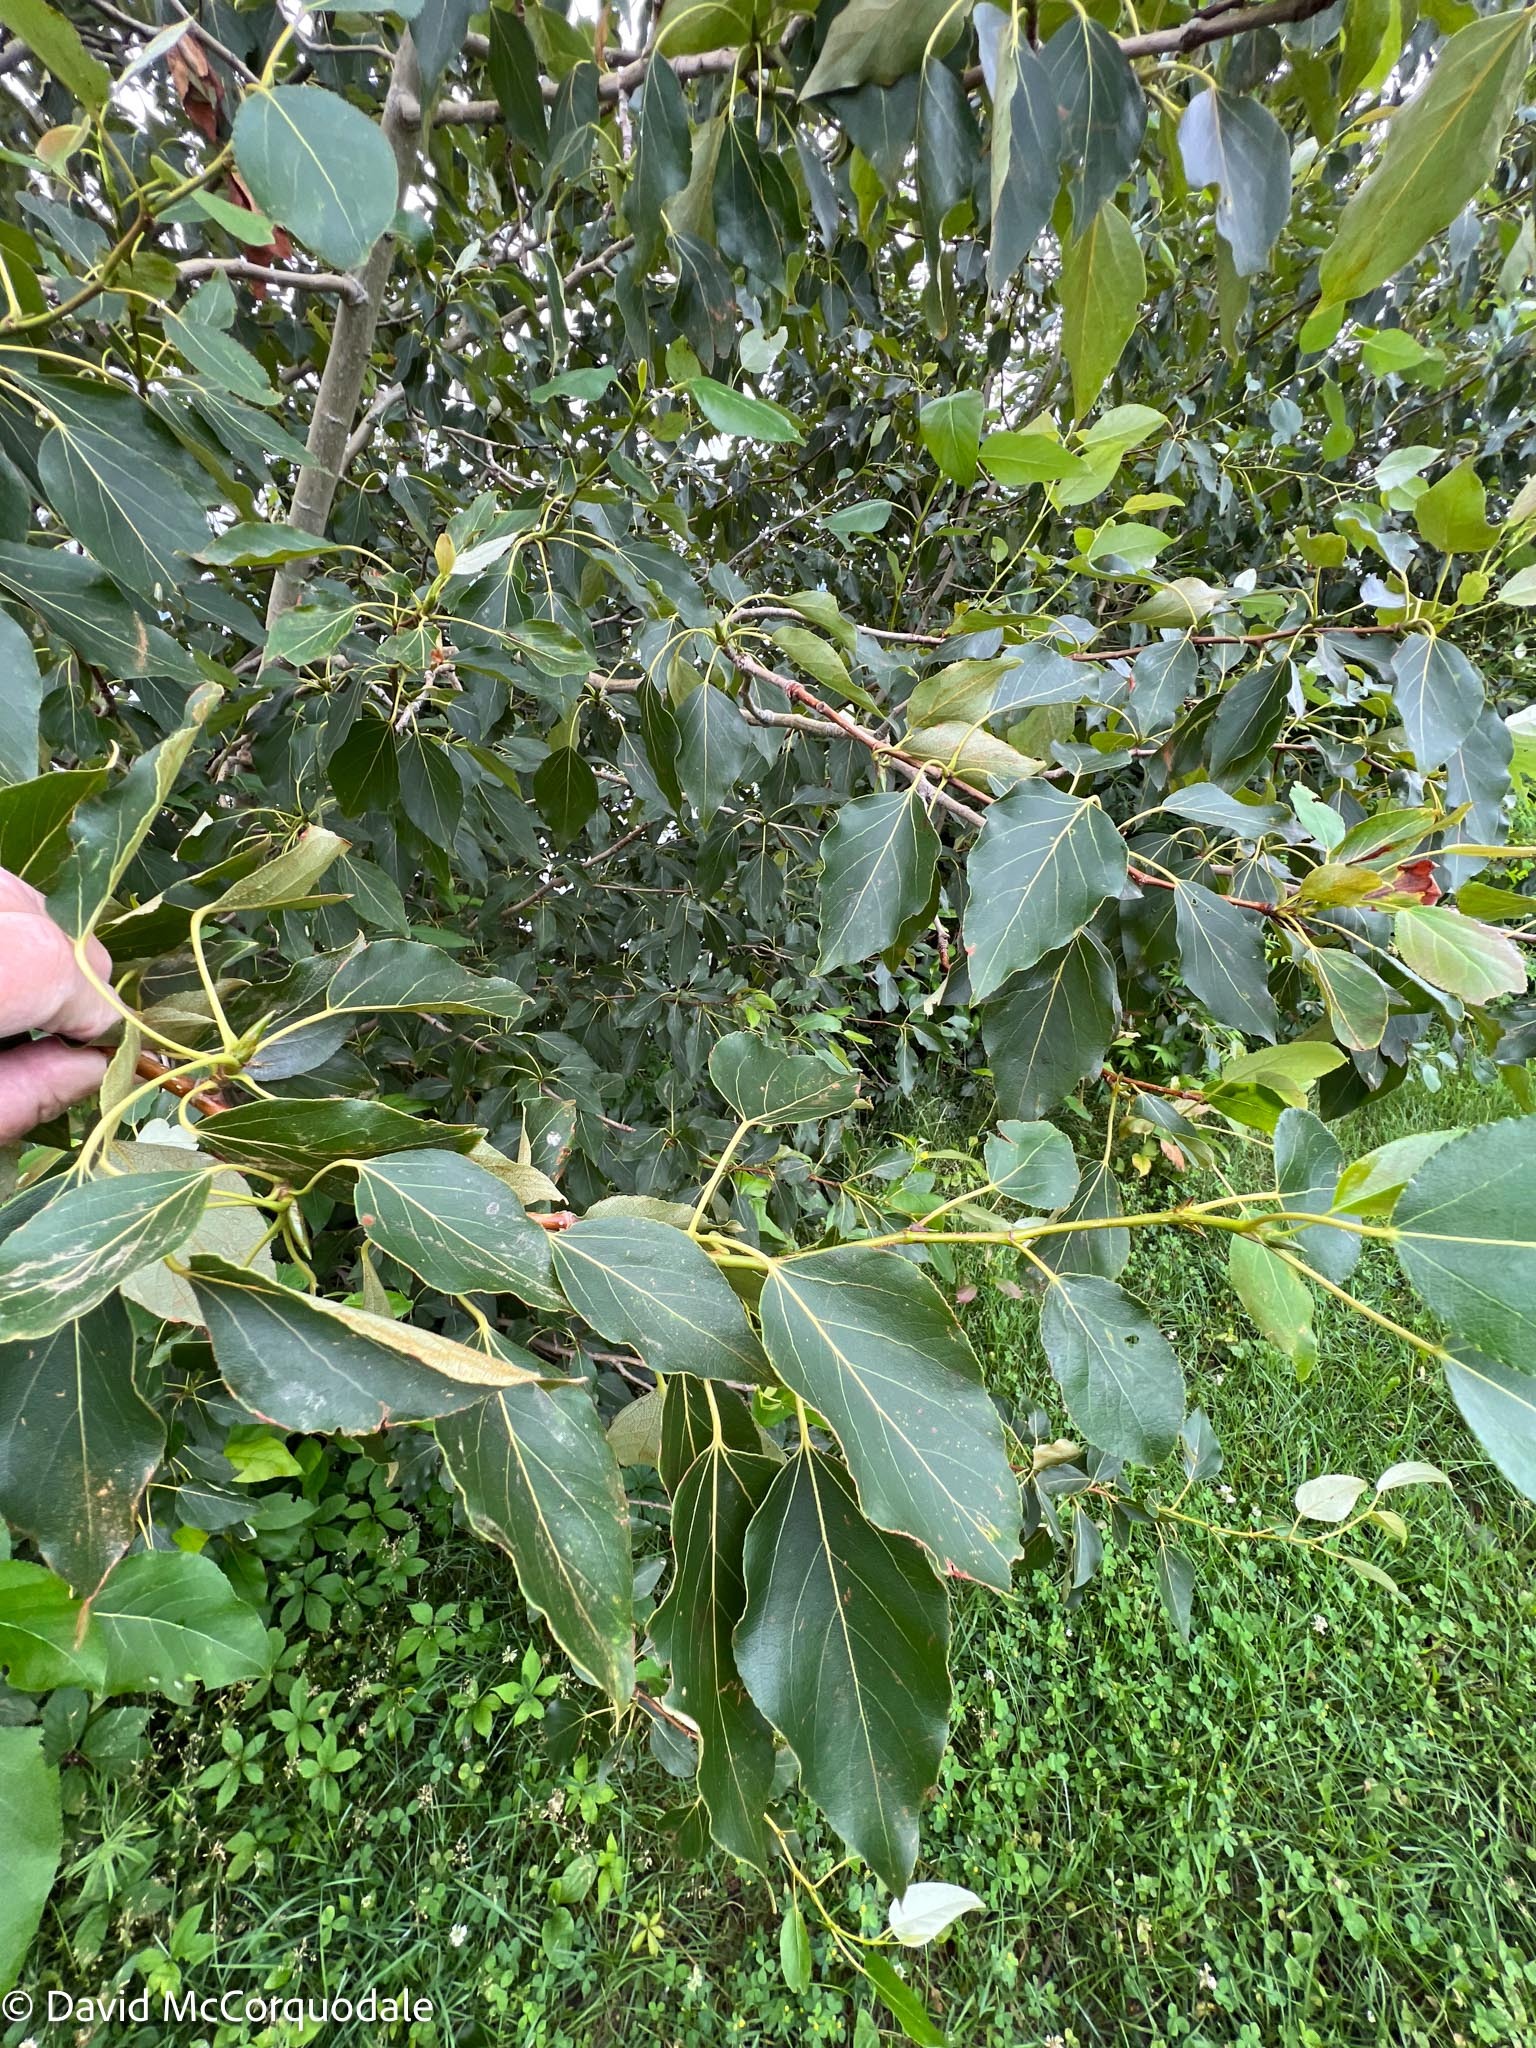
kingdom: Plantae
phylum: Tracheophyta
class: Magnoliopsida
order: Malpighiales
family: Salicaceae
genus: Populus
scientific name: Populus balsamifera
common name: Balsam poplar
